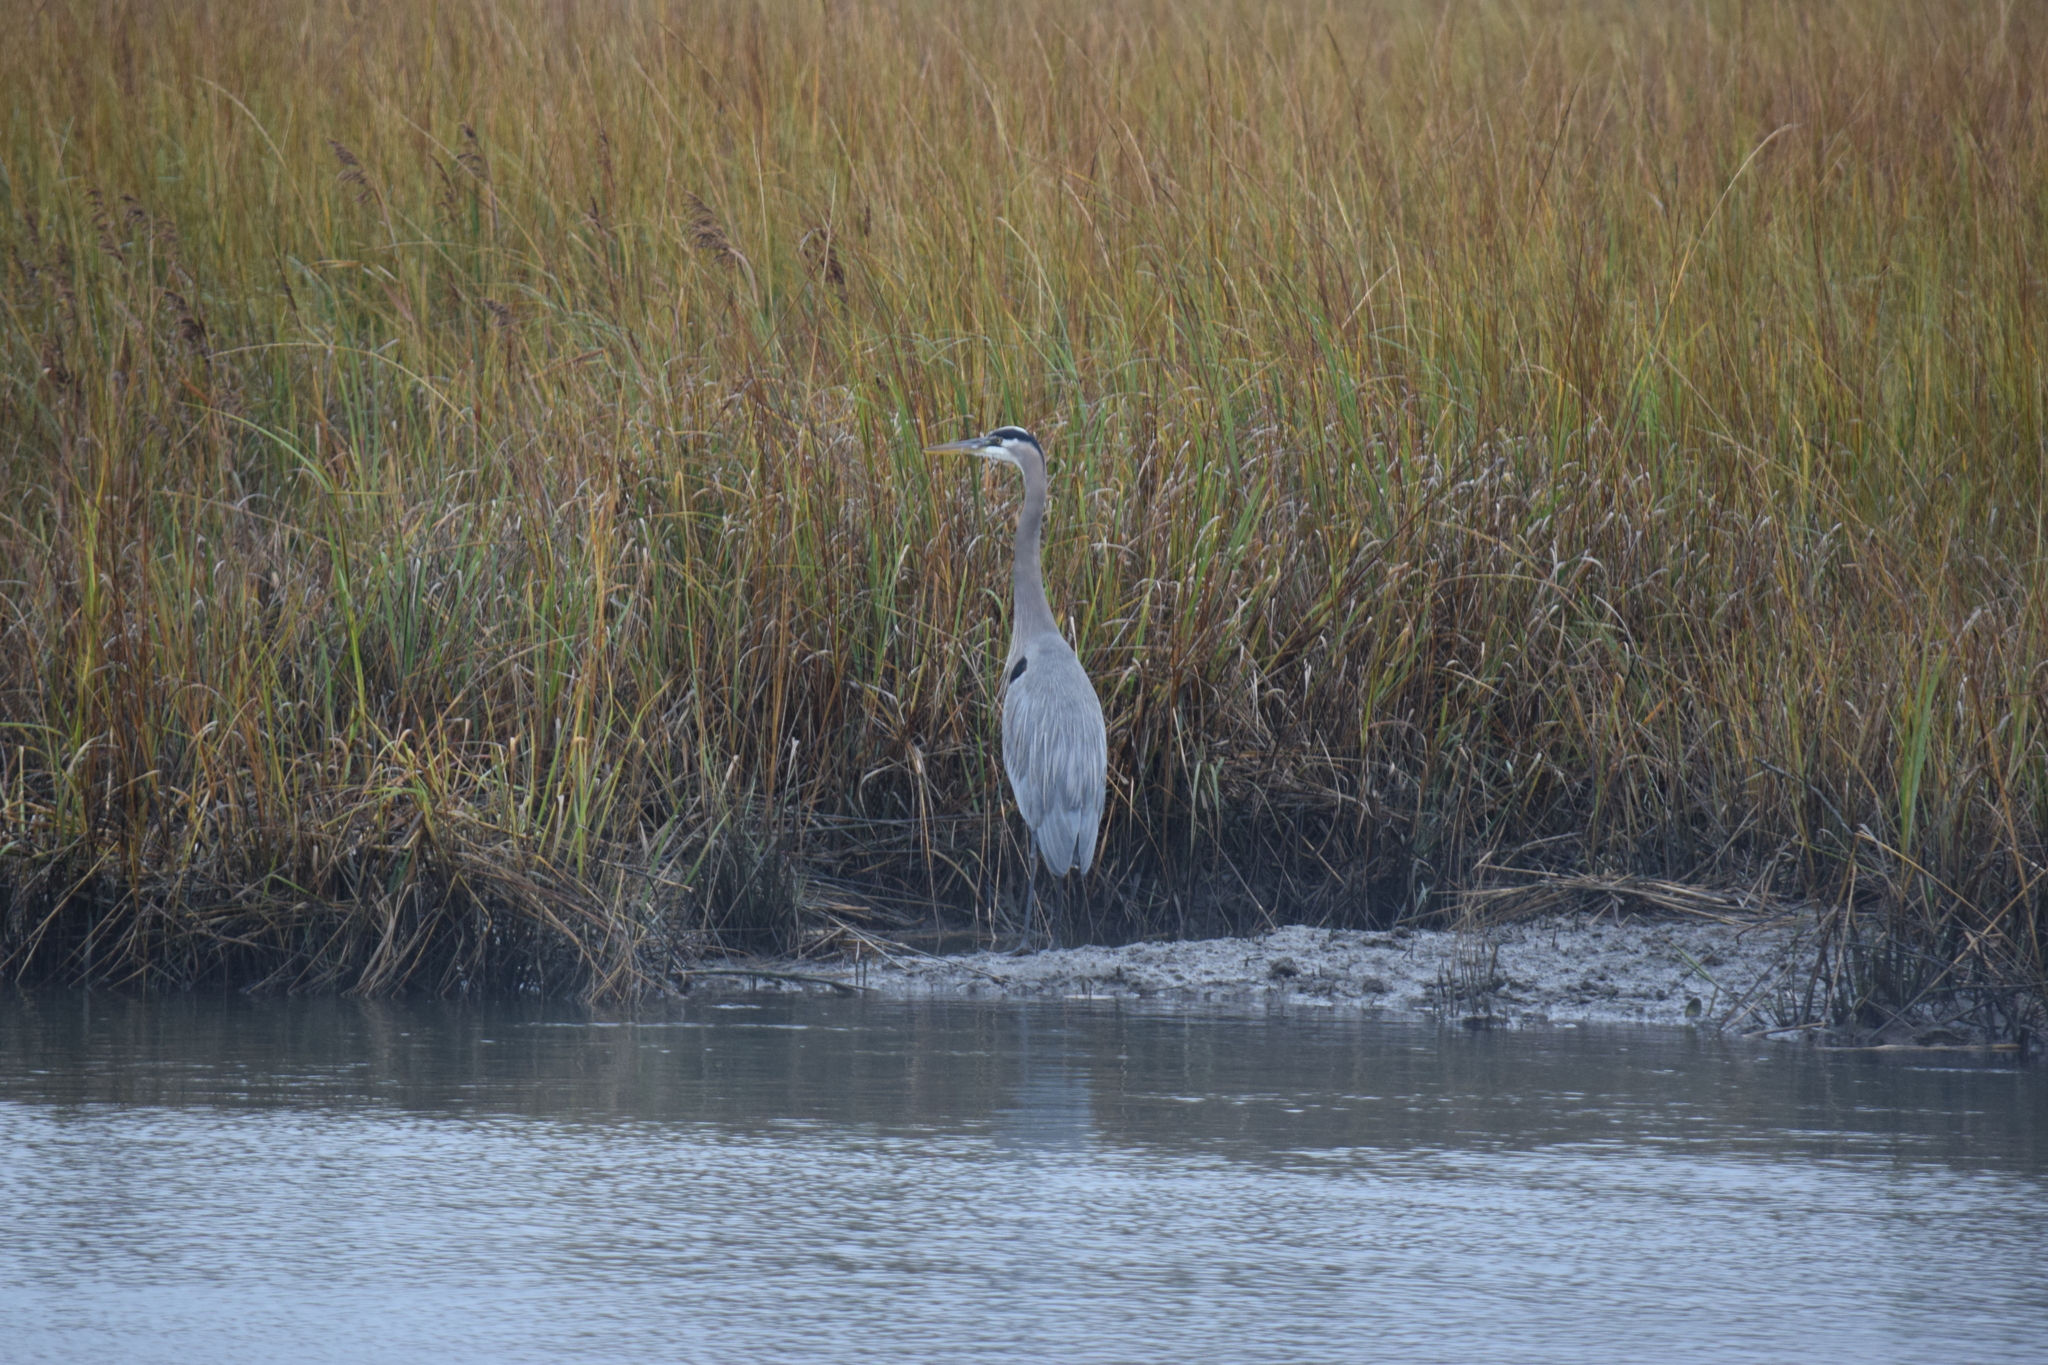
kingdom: Animalia
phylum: Chordata
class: Aves
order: Pelecaniformes
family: Ardeidae
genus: Ardea
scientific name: Ardea herodias
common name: Great blue heron
